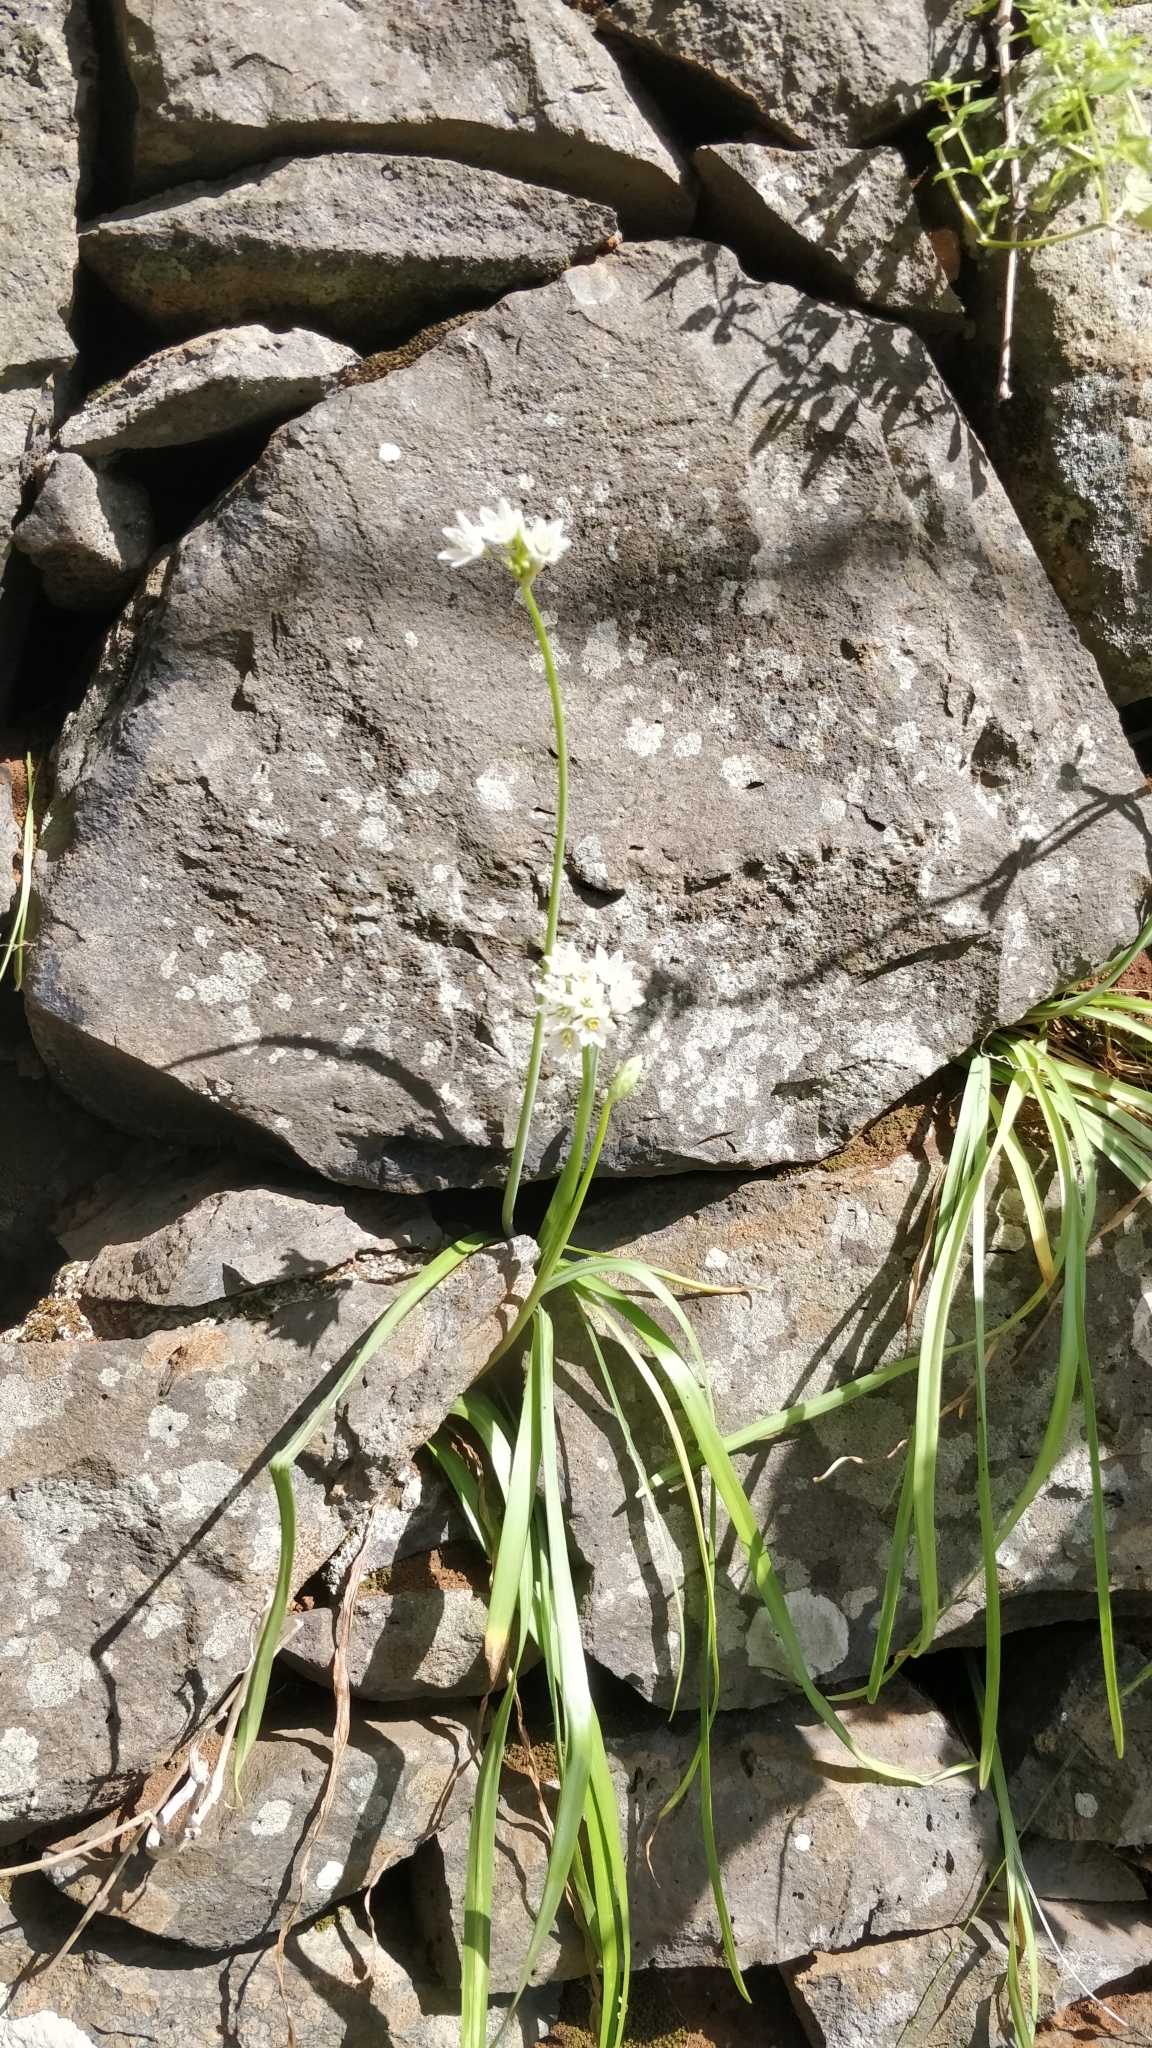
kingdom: Plantae
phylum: Tracheophyta
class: Liliopsida
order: Asparagales
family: Amaryllidaceae
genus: Nothoscordum
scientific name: Nothoscordum gracile
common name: Slender false garlic
